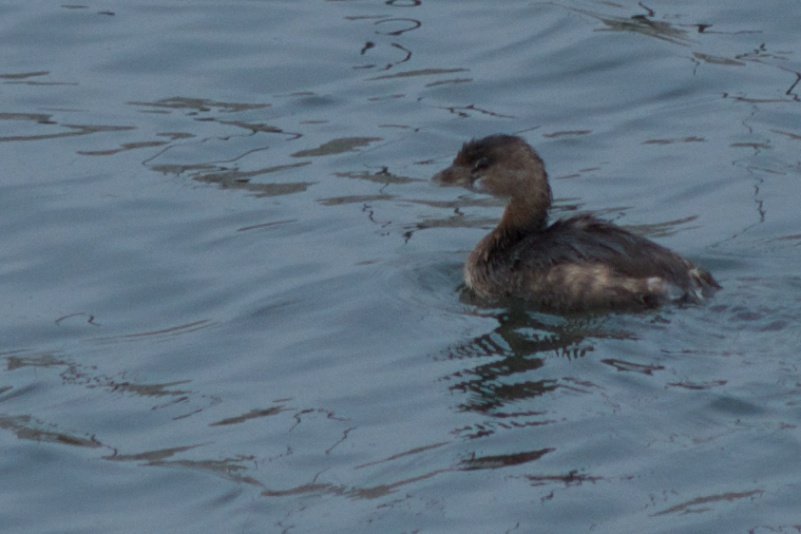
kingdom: Animalia
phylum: Chordata
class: Aves
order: Podicipediformes
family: Podicipedidae
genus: Podilymbus
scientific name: Podilymbus podiceps
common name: Pied-billed grebe
